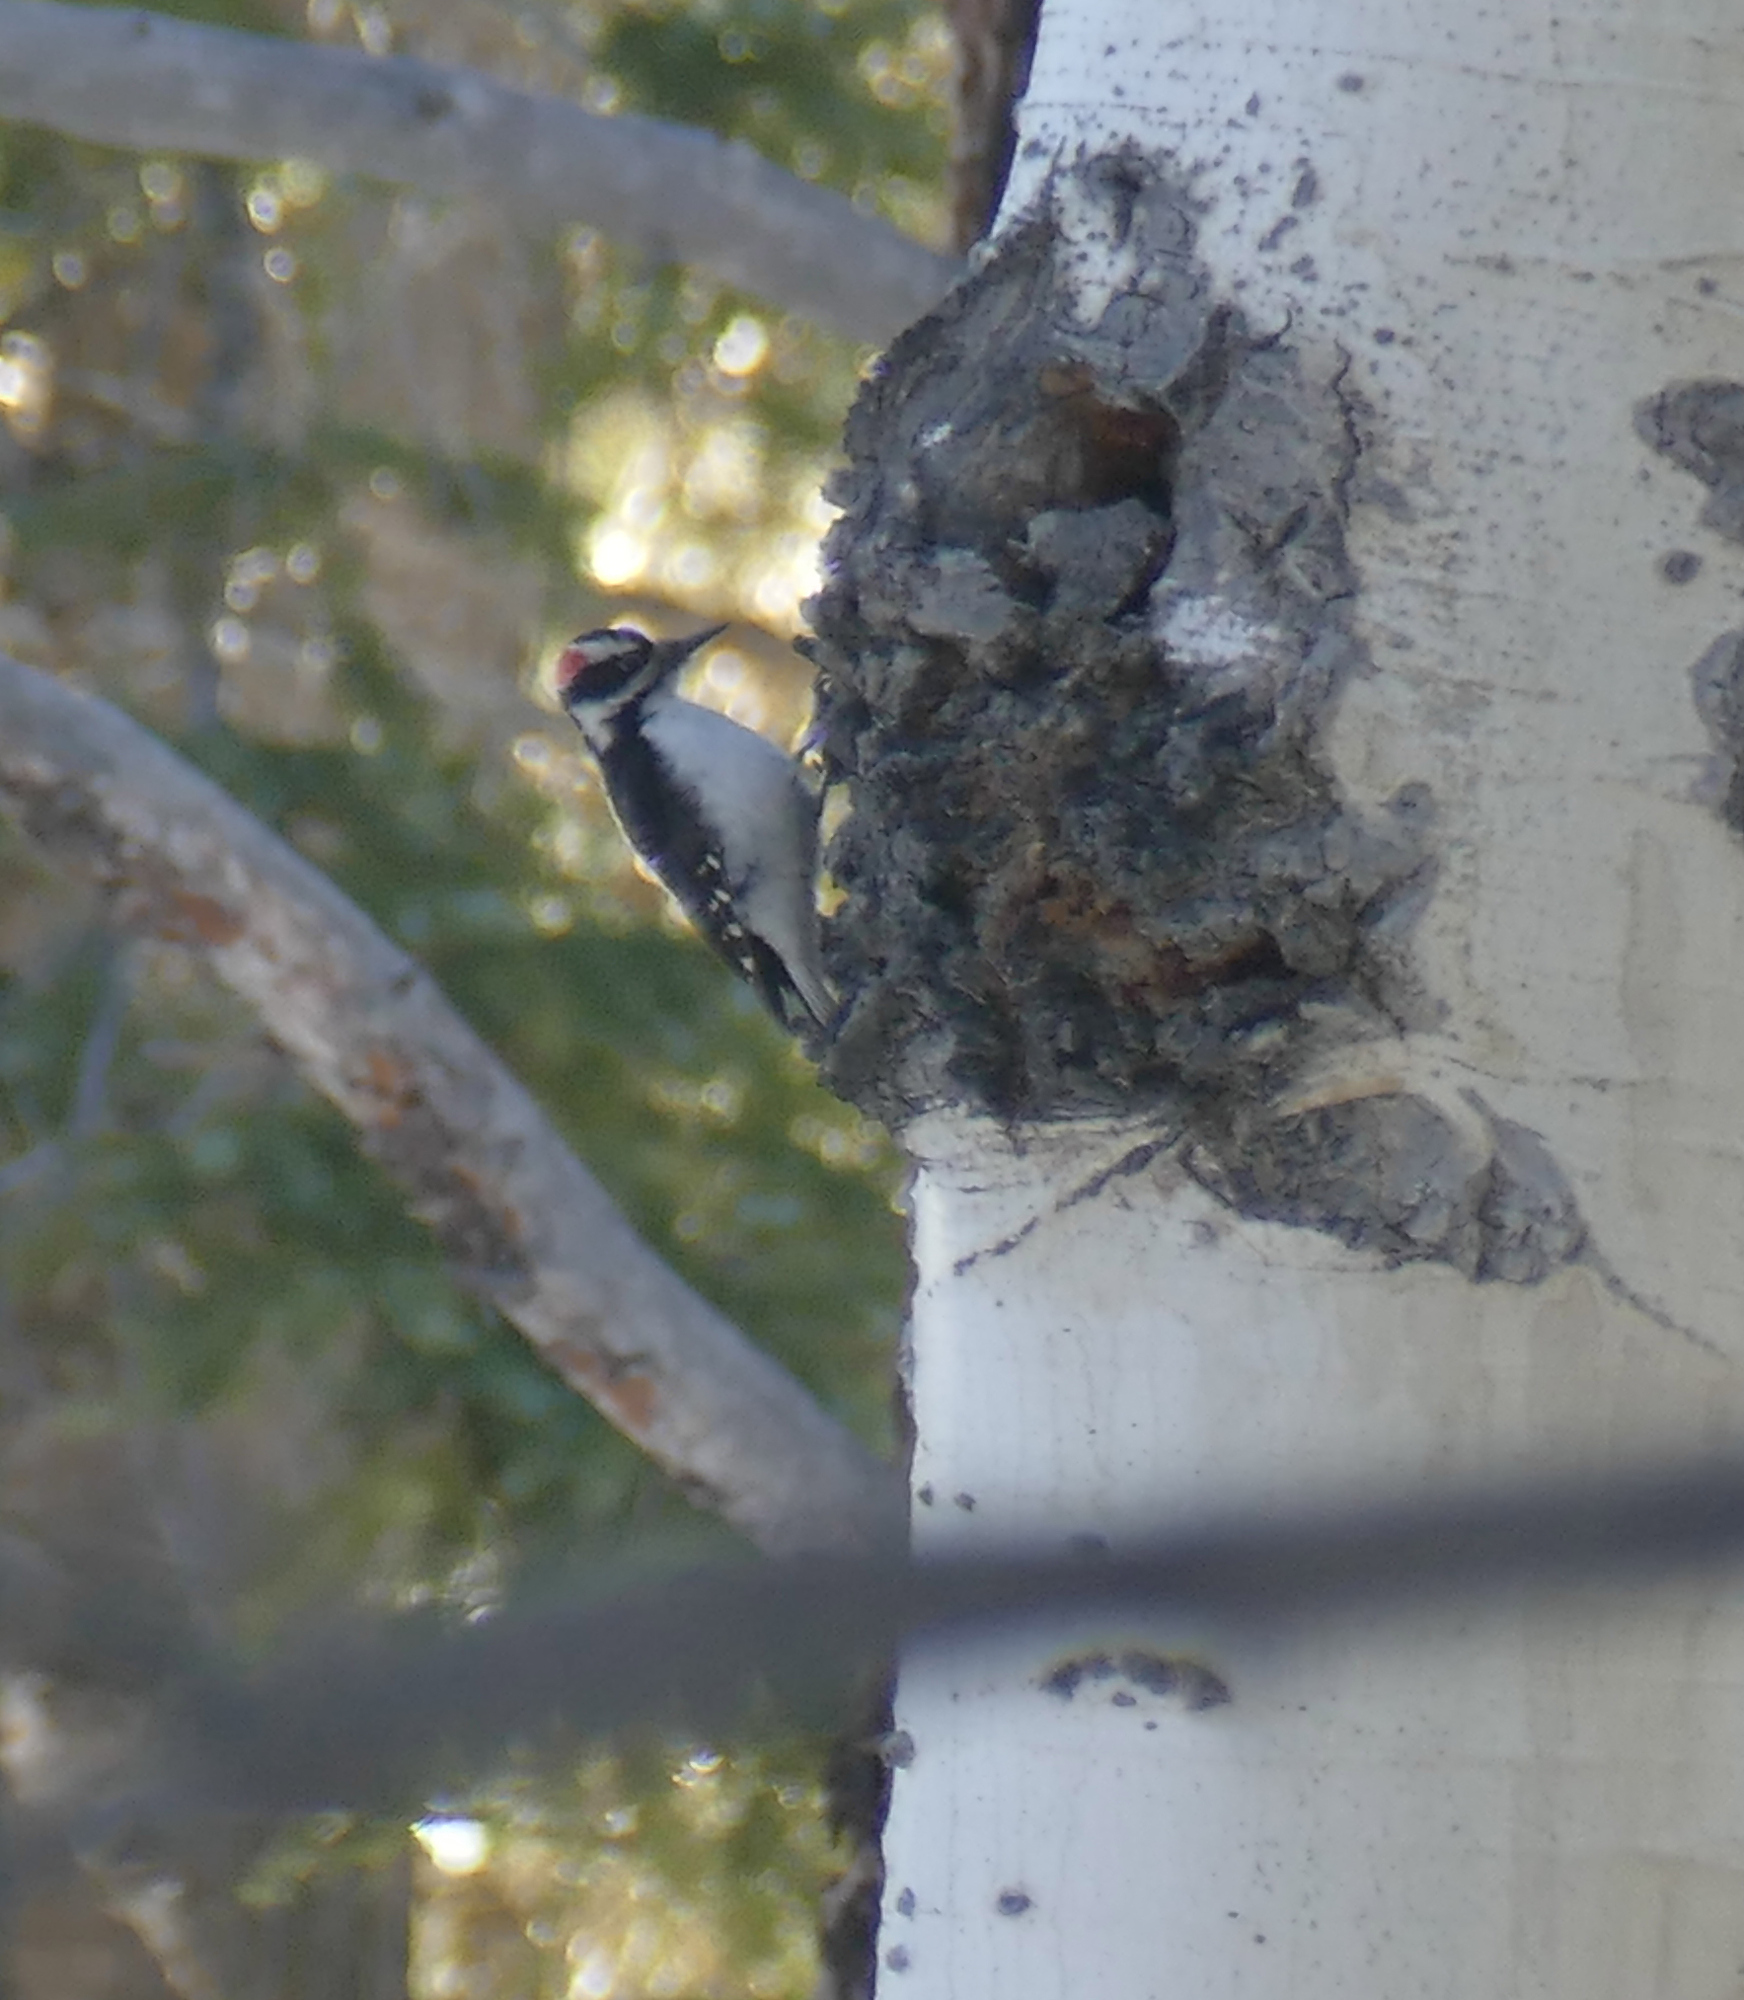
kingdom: Animalia
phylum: Chordata
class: Aves
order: Piciformes
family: Picidae
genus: Leuconotopicus
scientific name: Leuconotopicus villosus
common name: Hairy woodpecker
